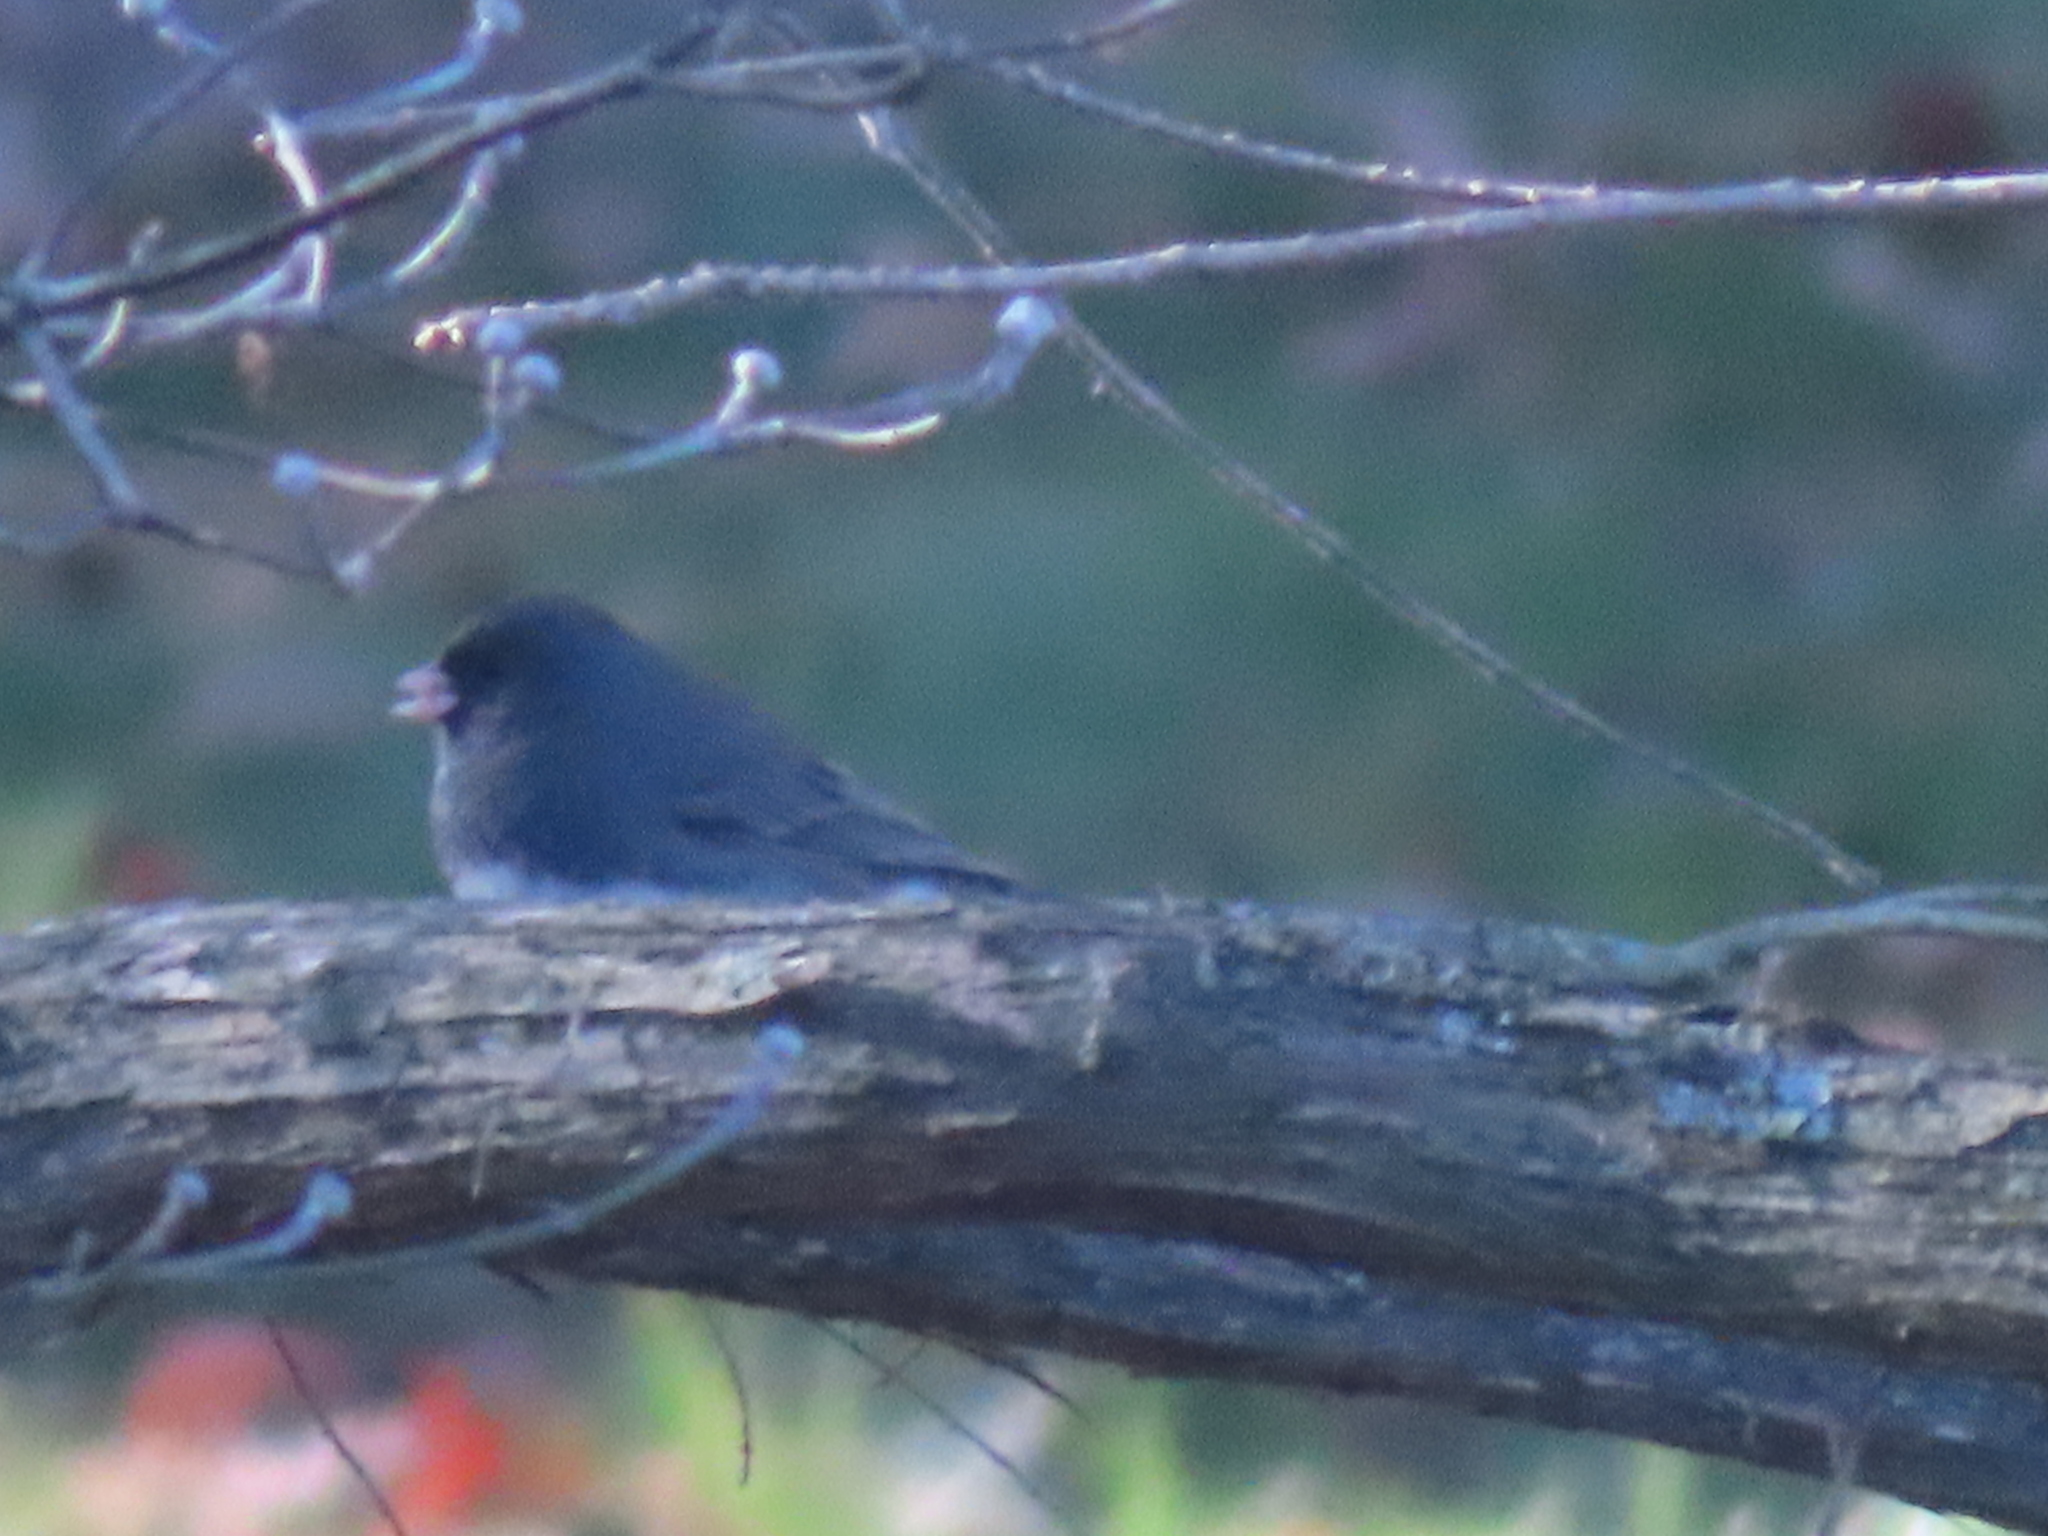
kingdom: Animalia
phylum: Chordata
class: Aves
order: Passeriformes
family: Passerellidae
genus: Junco
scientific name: Junco hyemalis
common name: Dark-eyed junco
